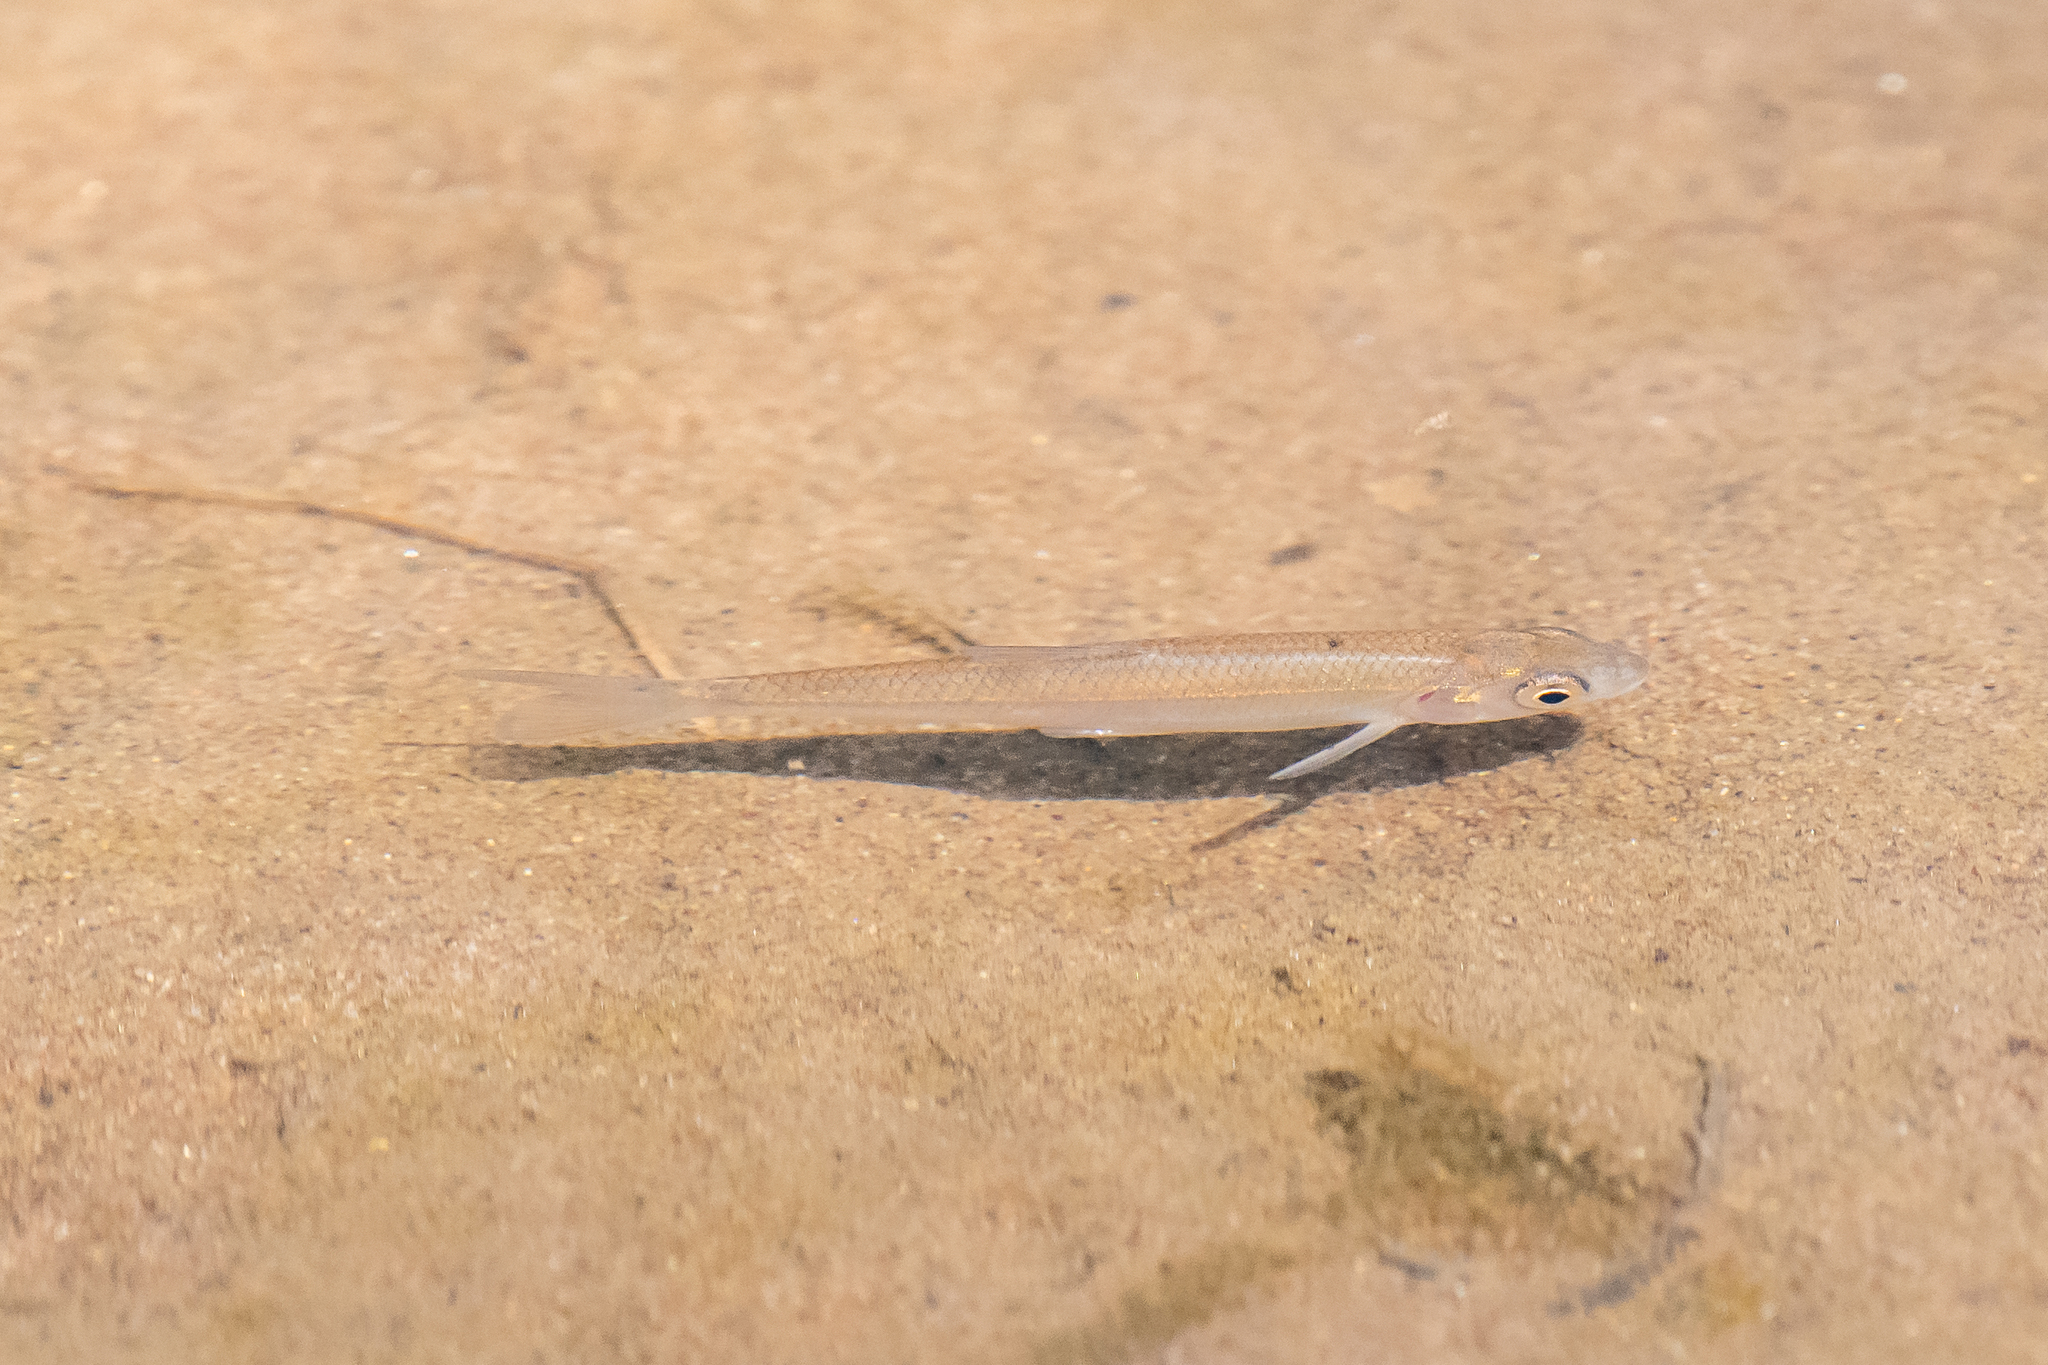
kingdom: Animalia
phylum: Chordata
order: Cypriniformes
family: Cyprinidae
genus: Alburnus
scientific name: Alburnus alburnus
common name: Bleak
